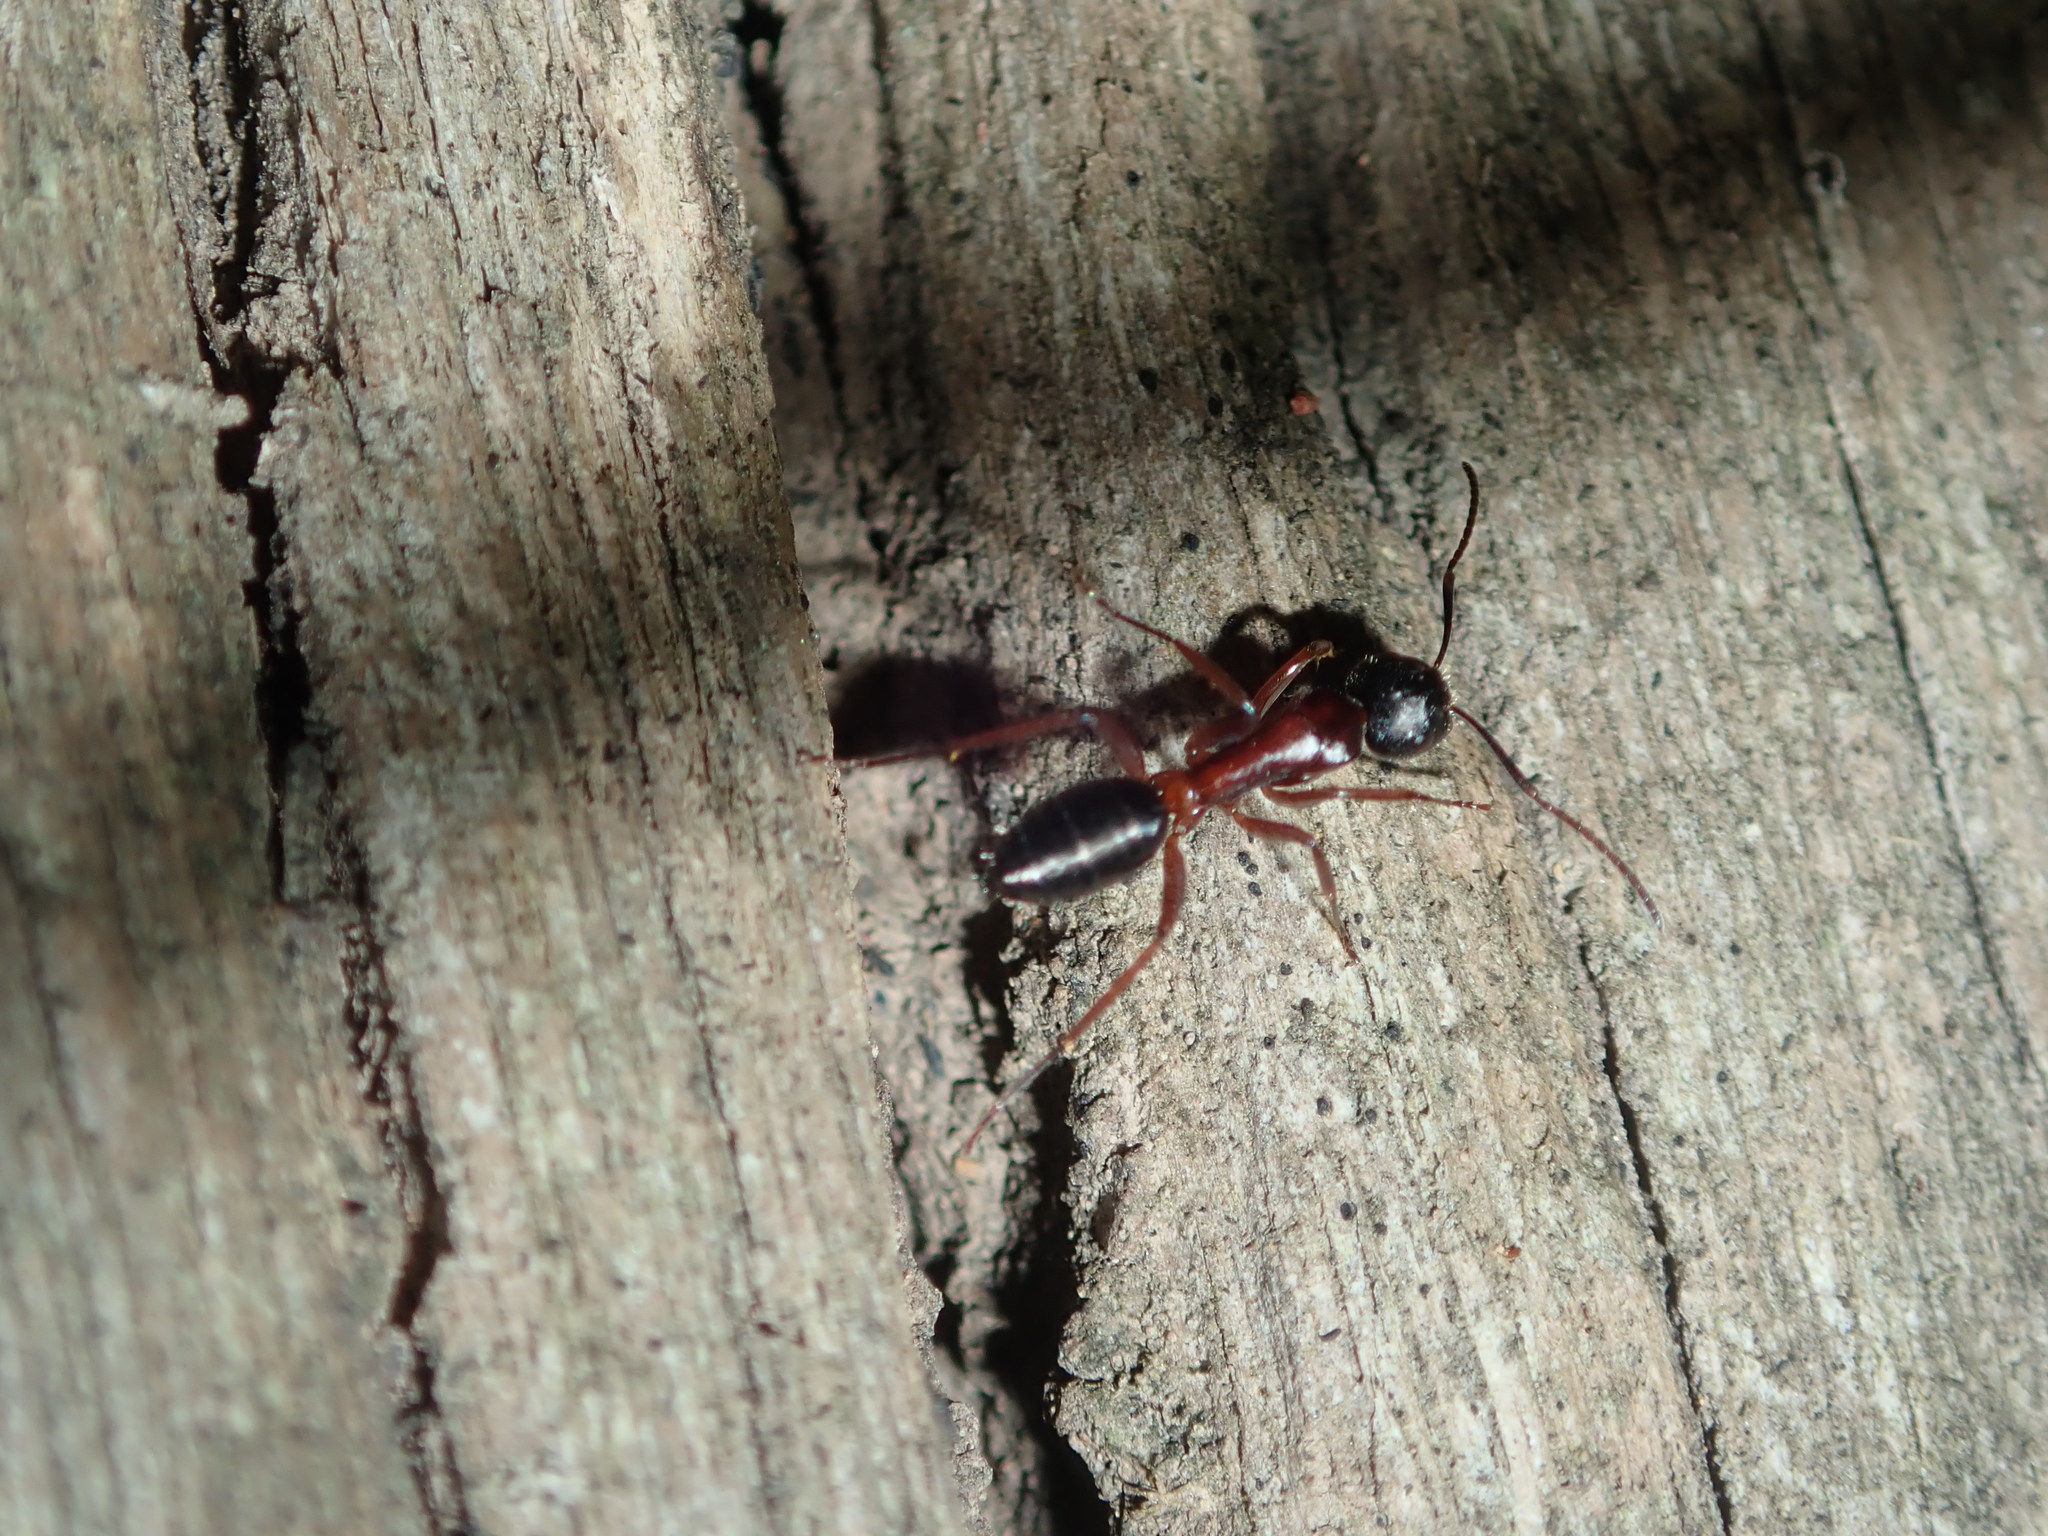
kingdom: Animalia
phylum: Arthropoda
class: Insecta
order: Hymenoptera
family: Formicidae
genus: Camponotus
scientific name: Camponotus innexus
